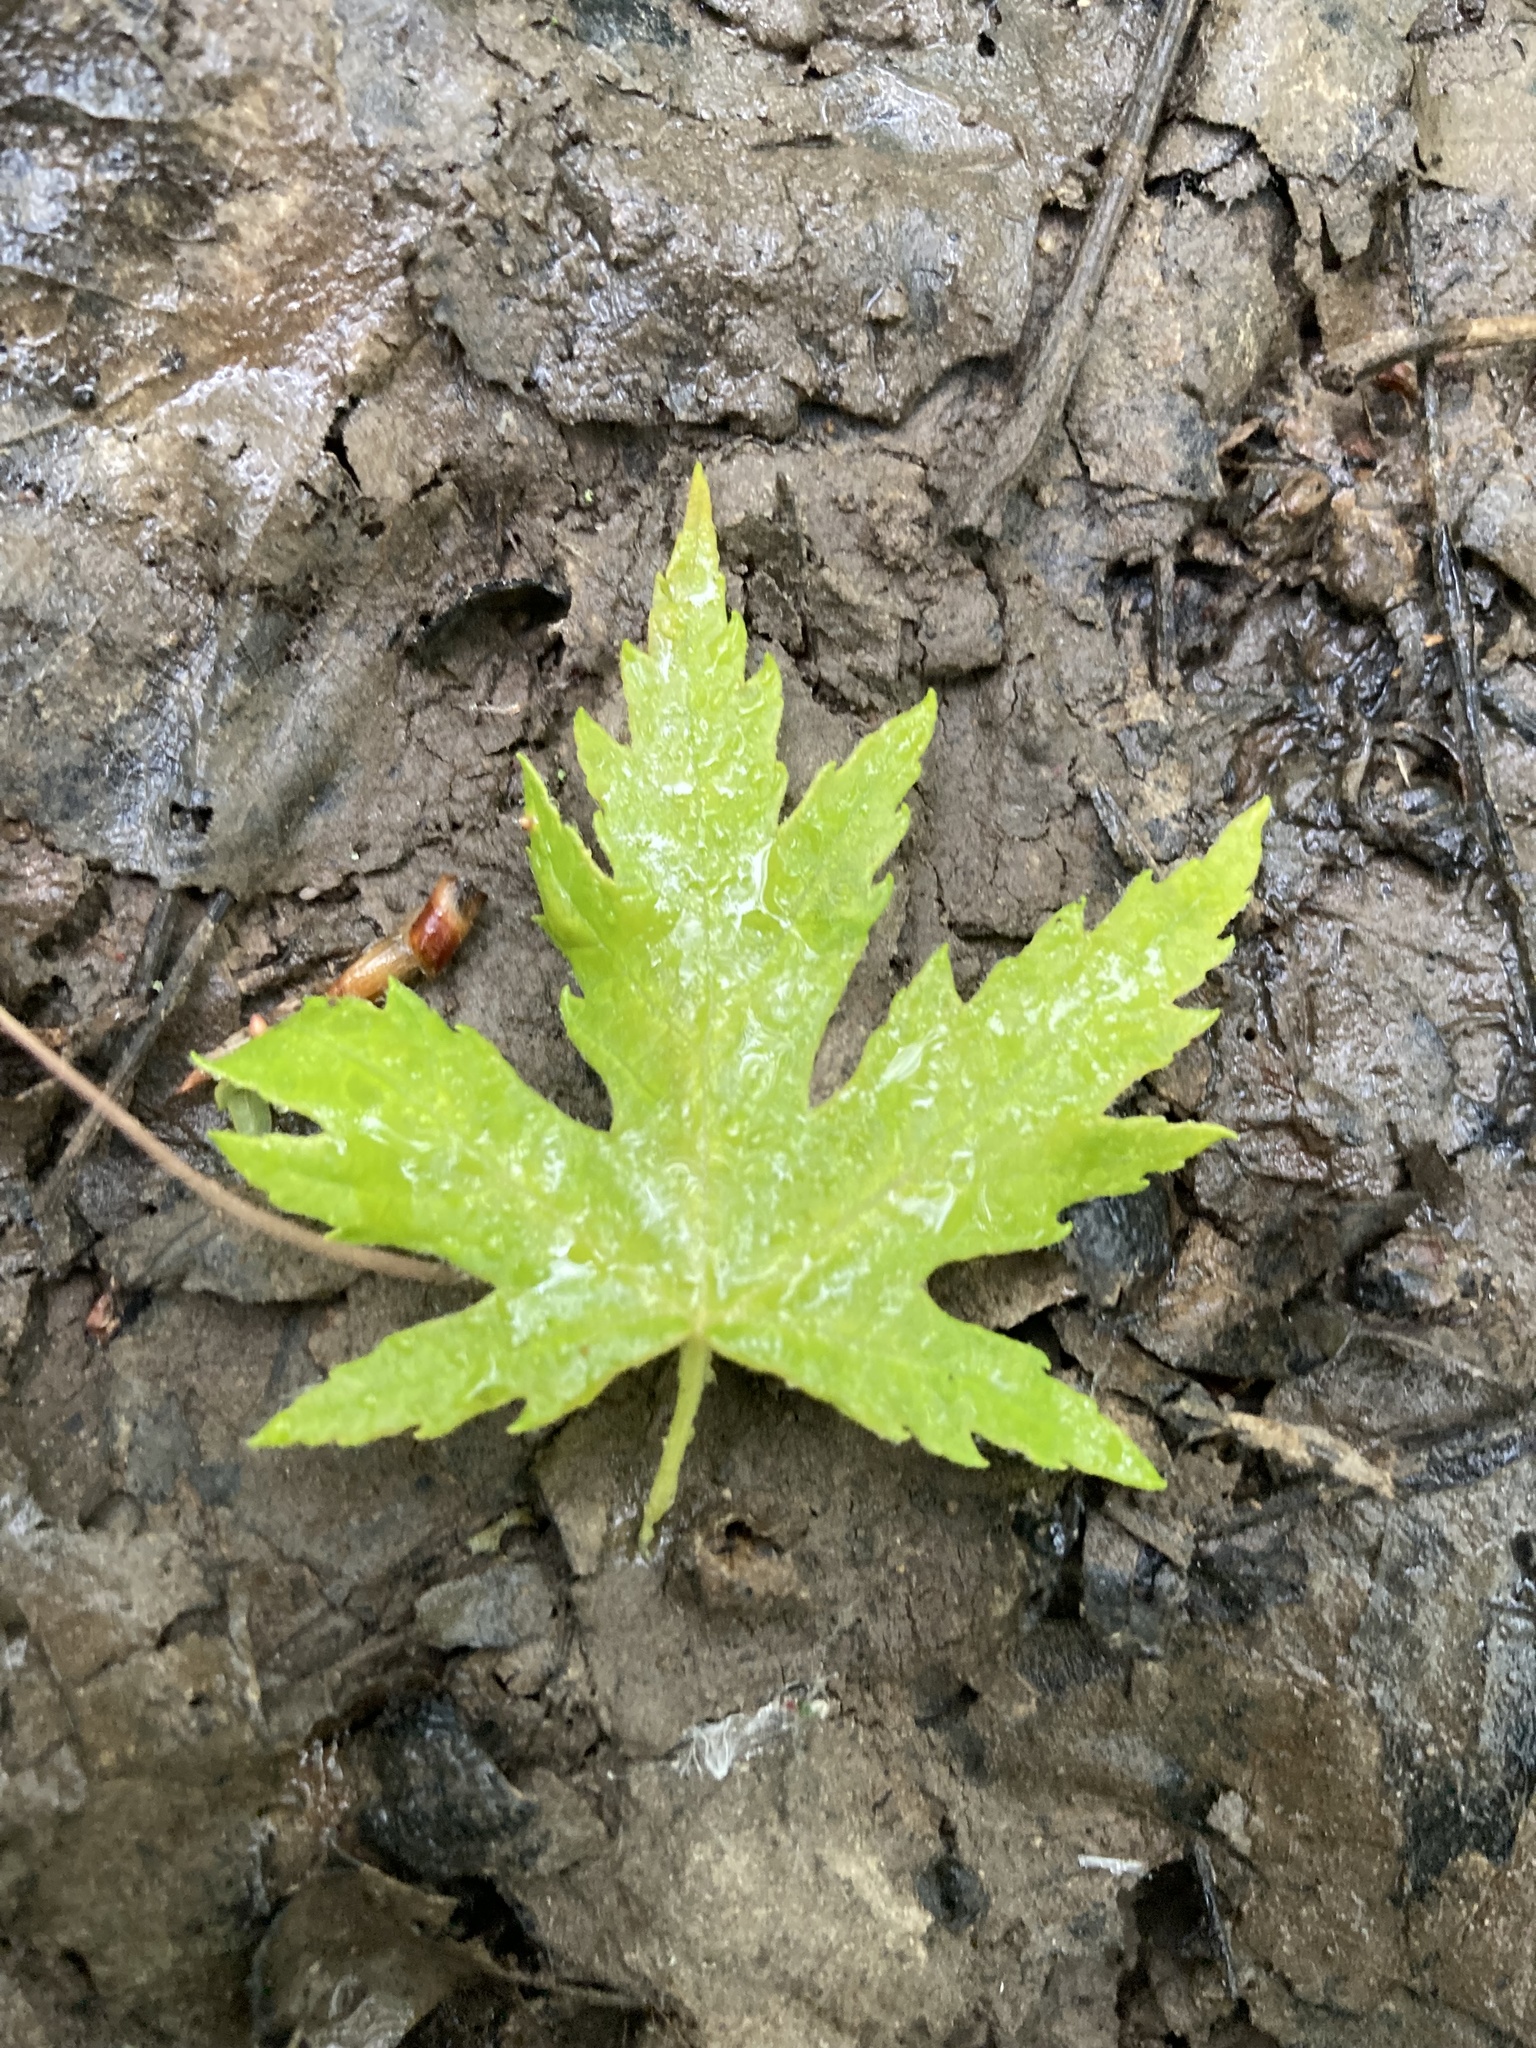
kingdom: Plantae
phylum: Tracheophyta
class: Magnoliopsida
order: Sapindales
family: Sapindaceae
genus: Acer
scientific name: Acer saccharinum
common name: Silver maple
